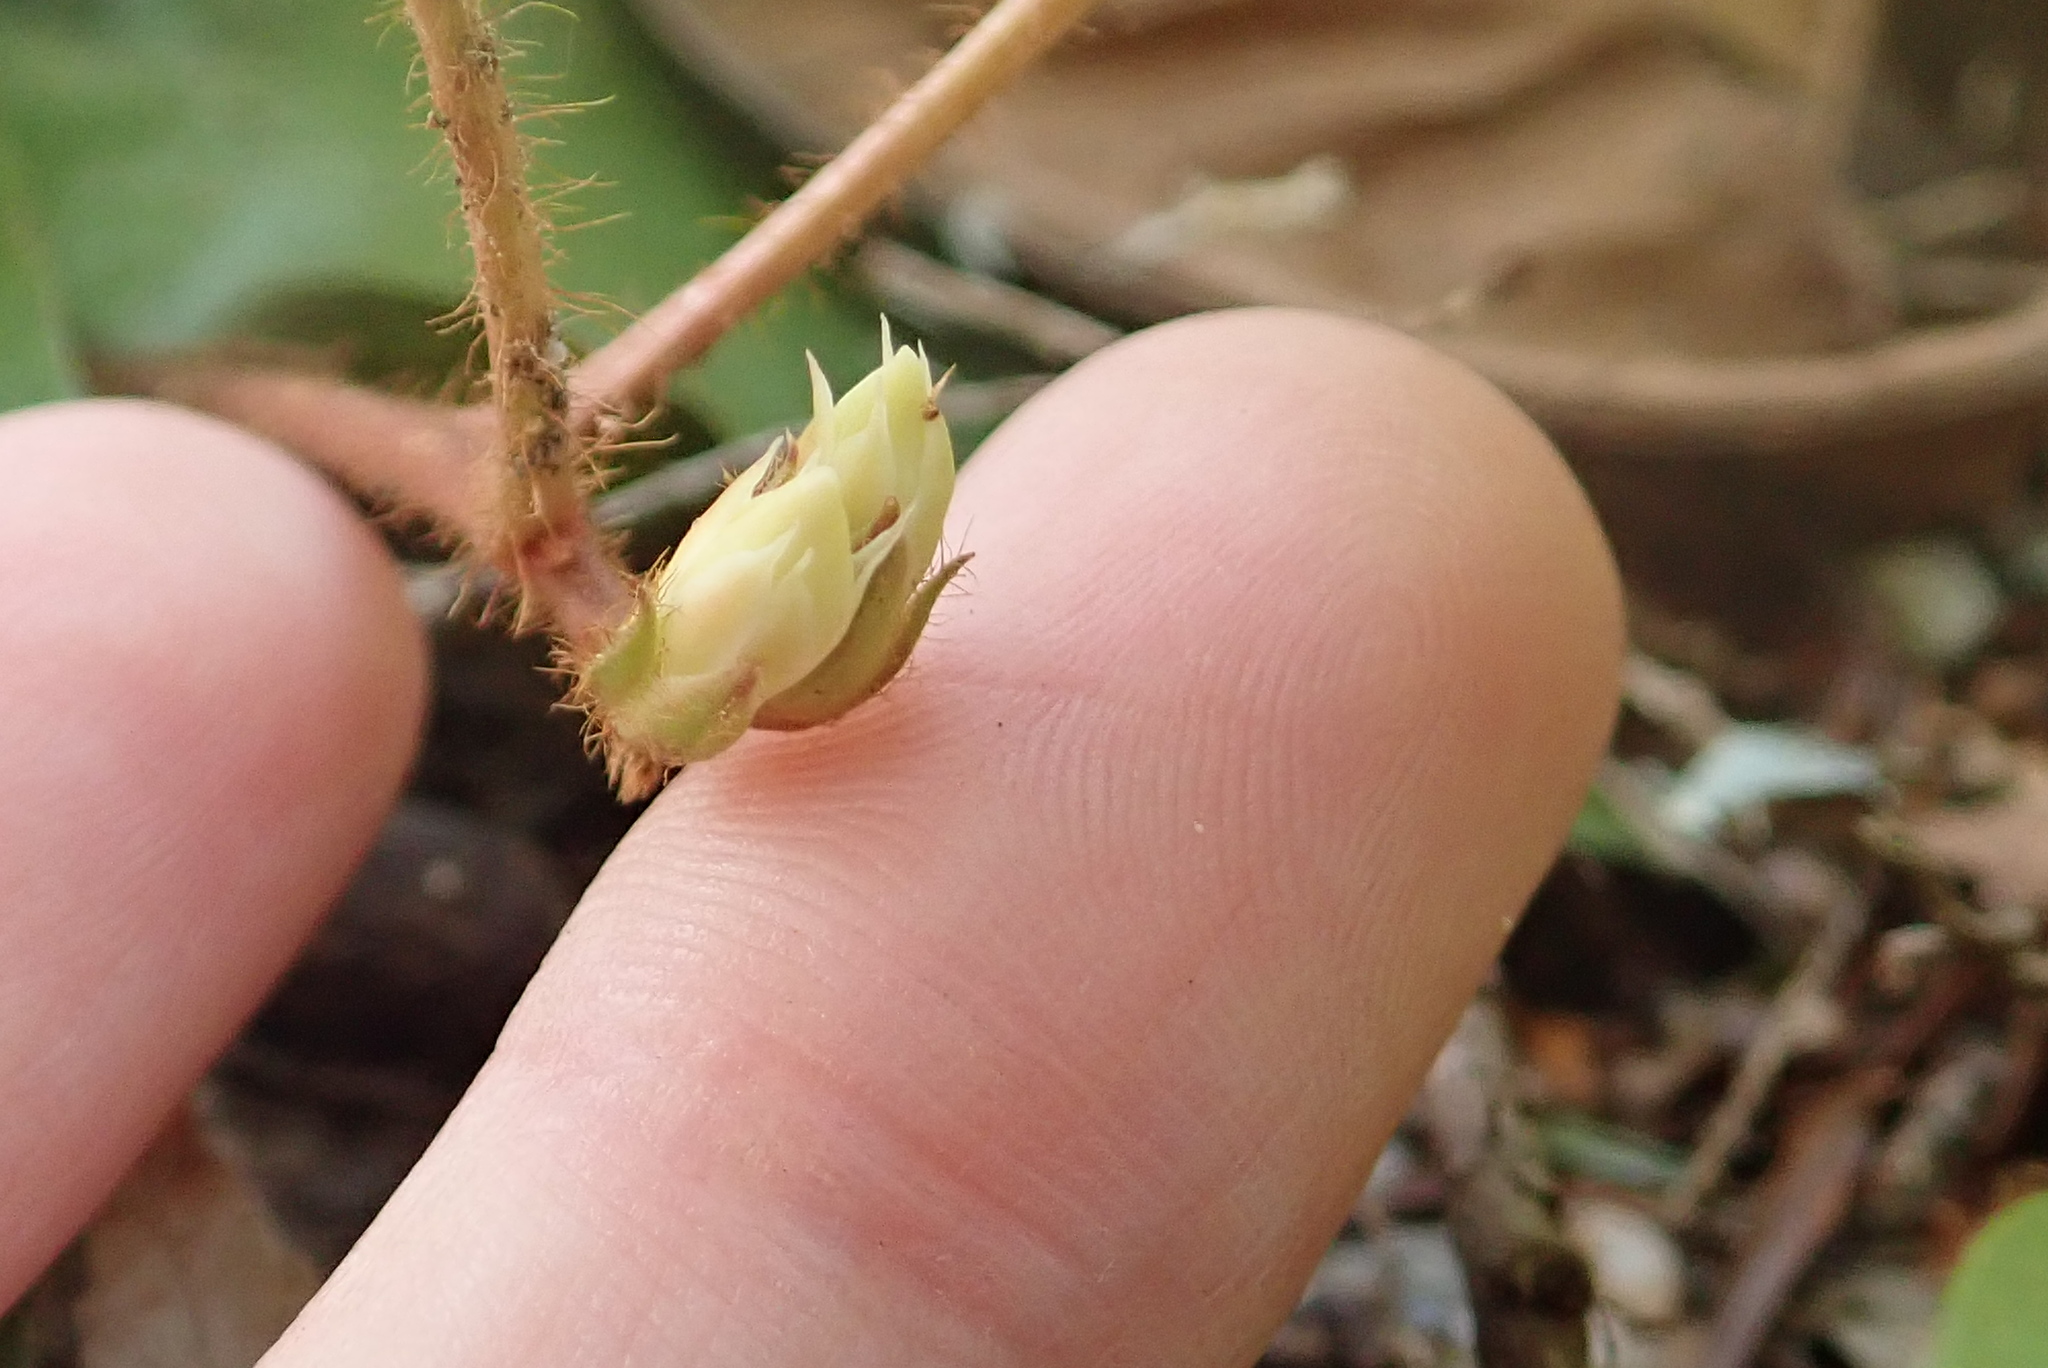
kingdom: Plantae
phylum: Tracheophyta
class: Magnoliopsida
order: Ericales
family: Ericaceae
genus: Epigaea
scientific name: Epigaea repens
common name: Gravelroot
